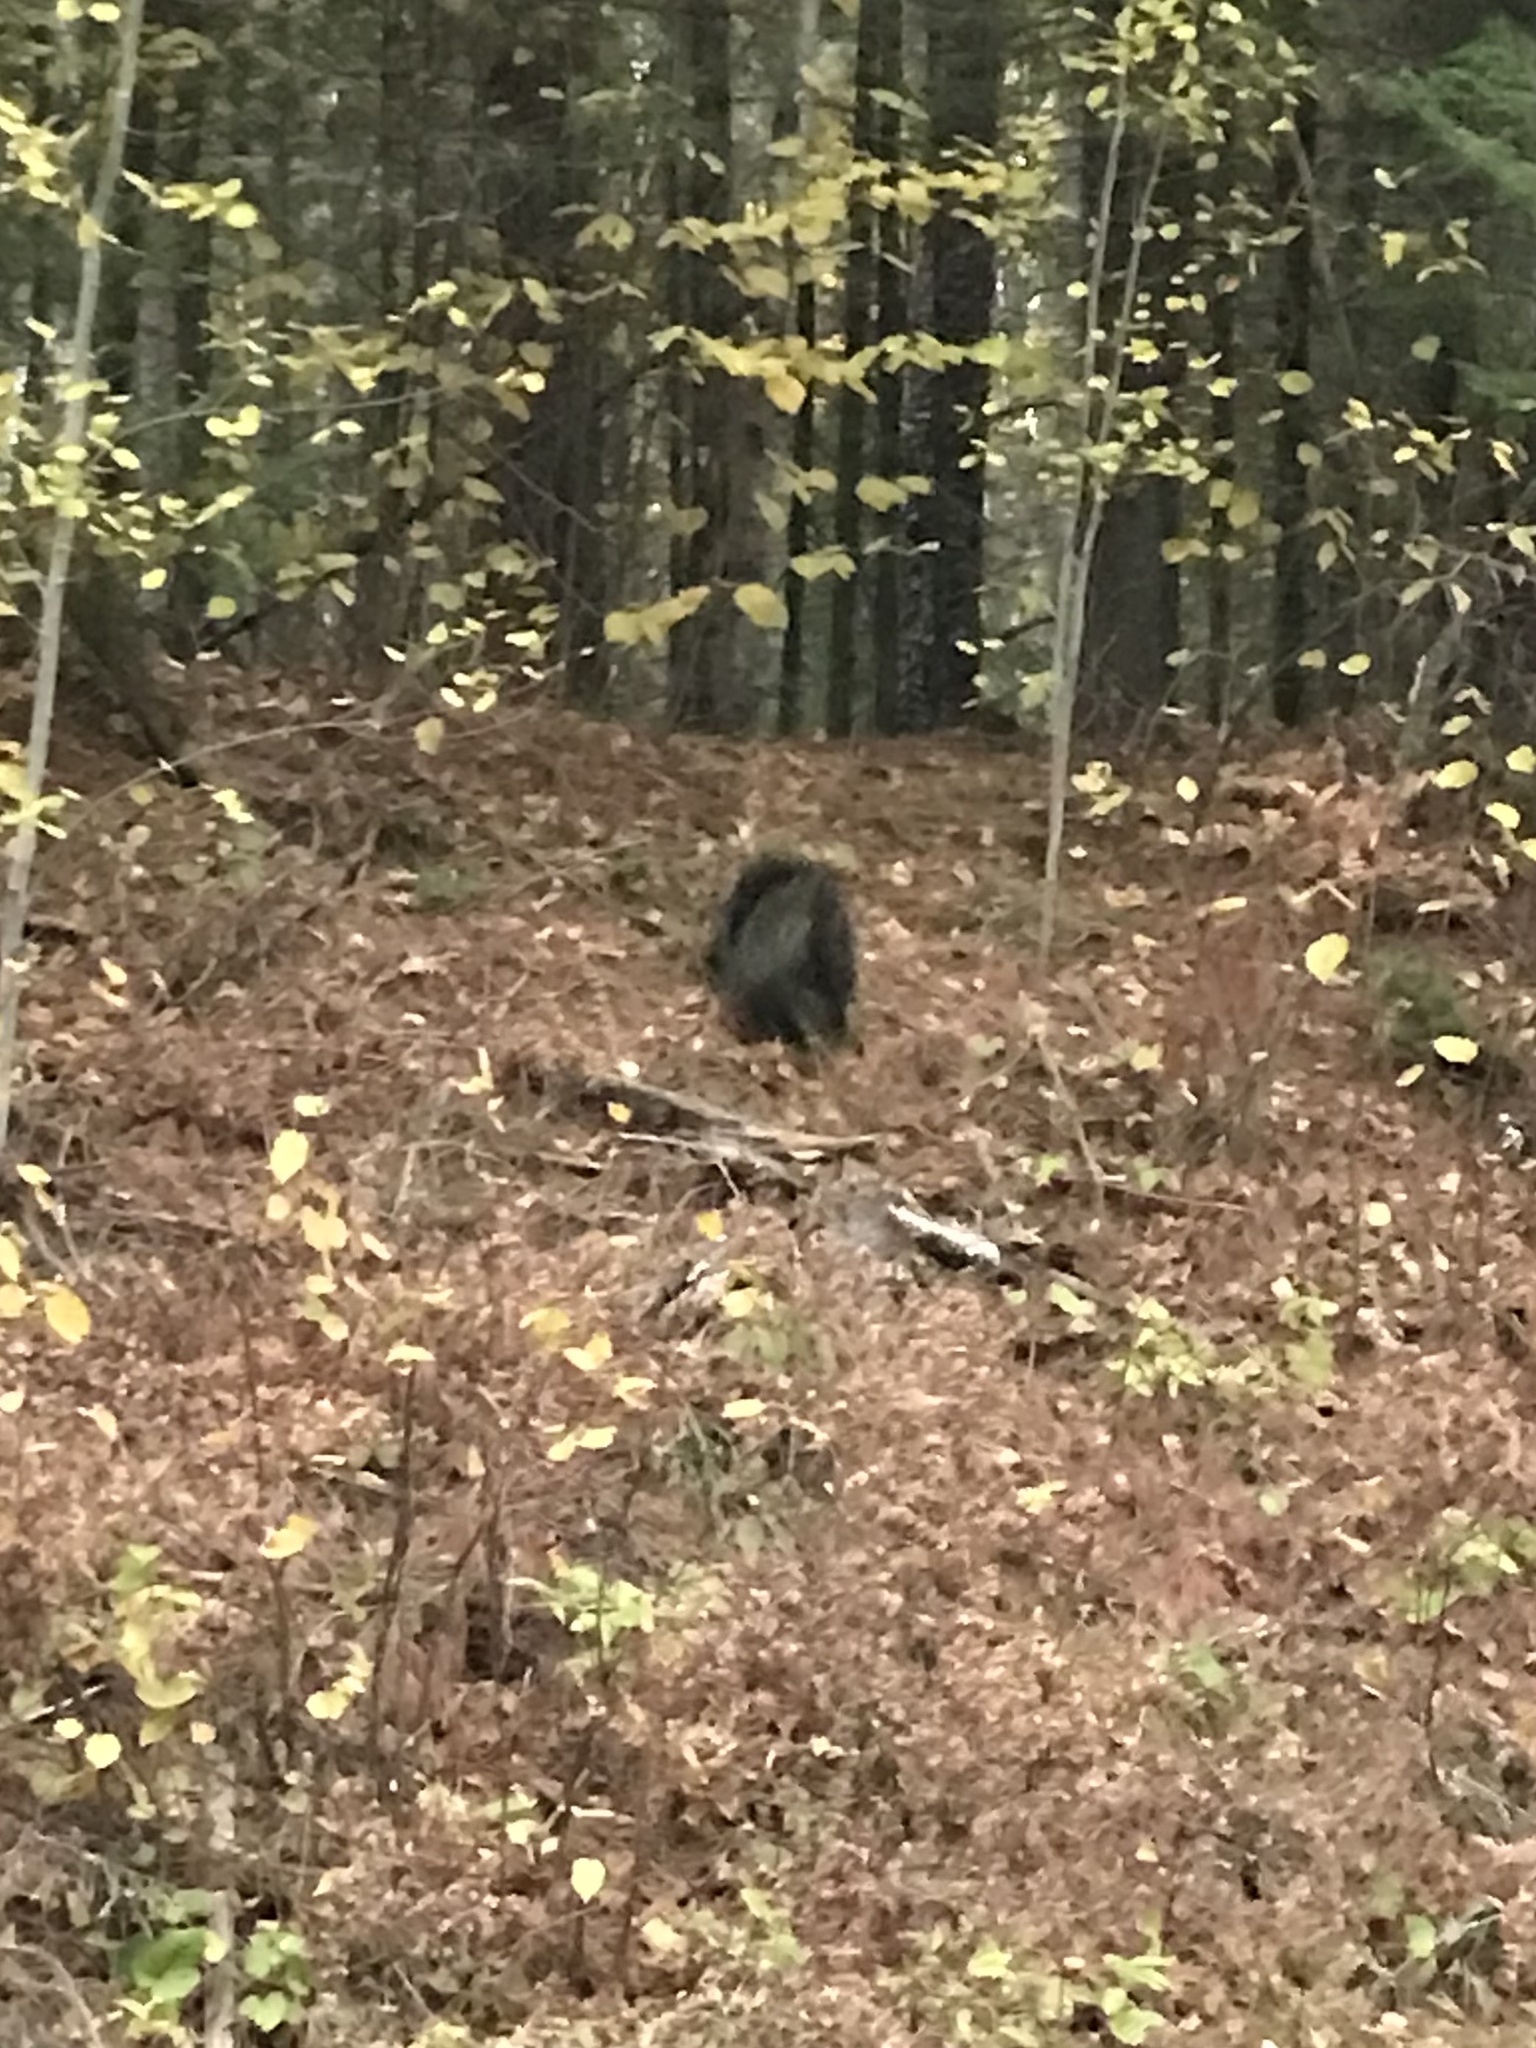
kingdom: Animalia
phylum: Chordata
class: Mammalia
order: Rodentia
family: Erethizontidae
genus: Erethizon
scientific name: Erethizon dorsatus
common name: North american porcupine
